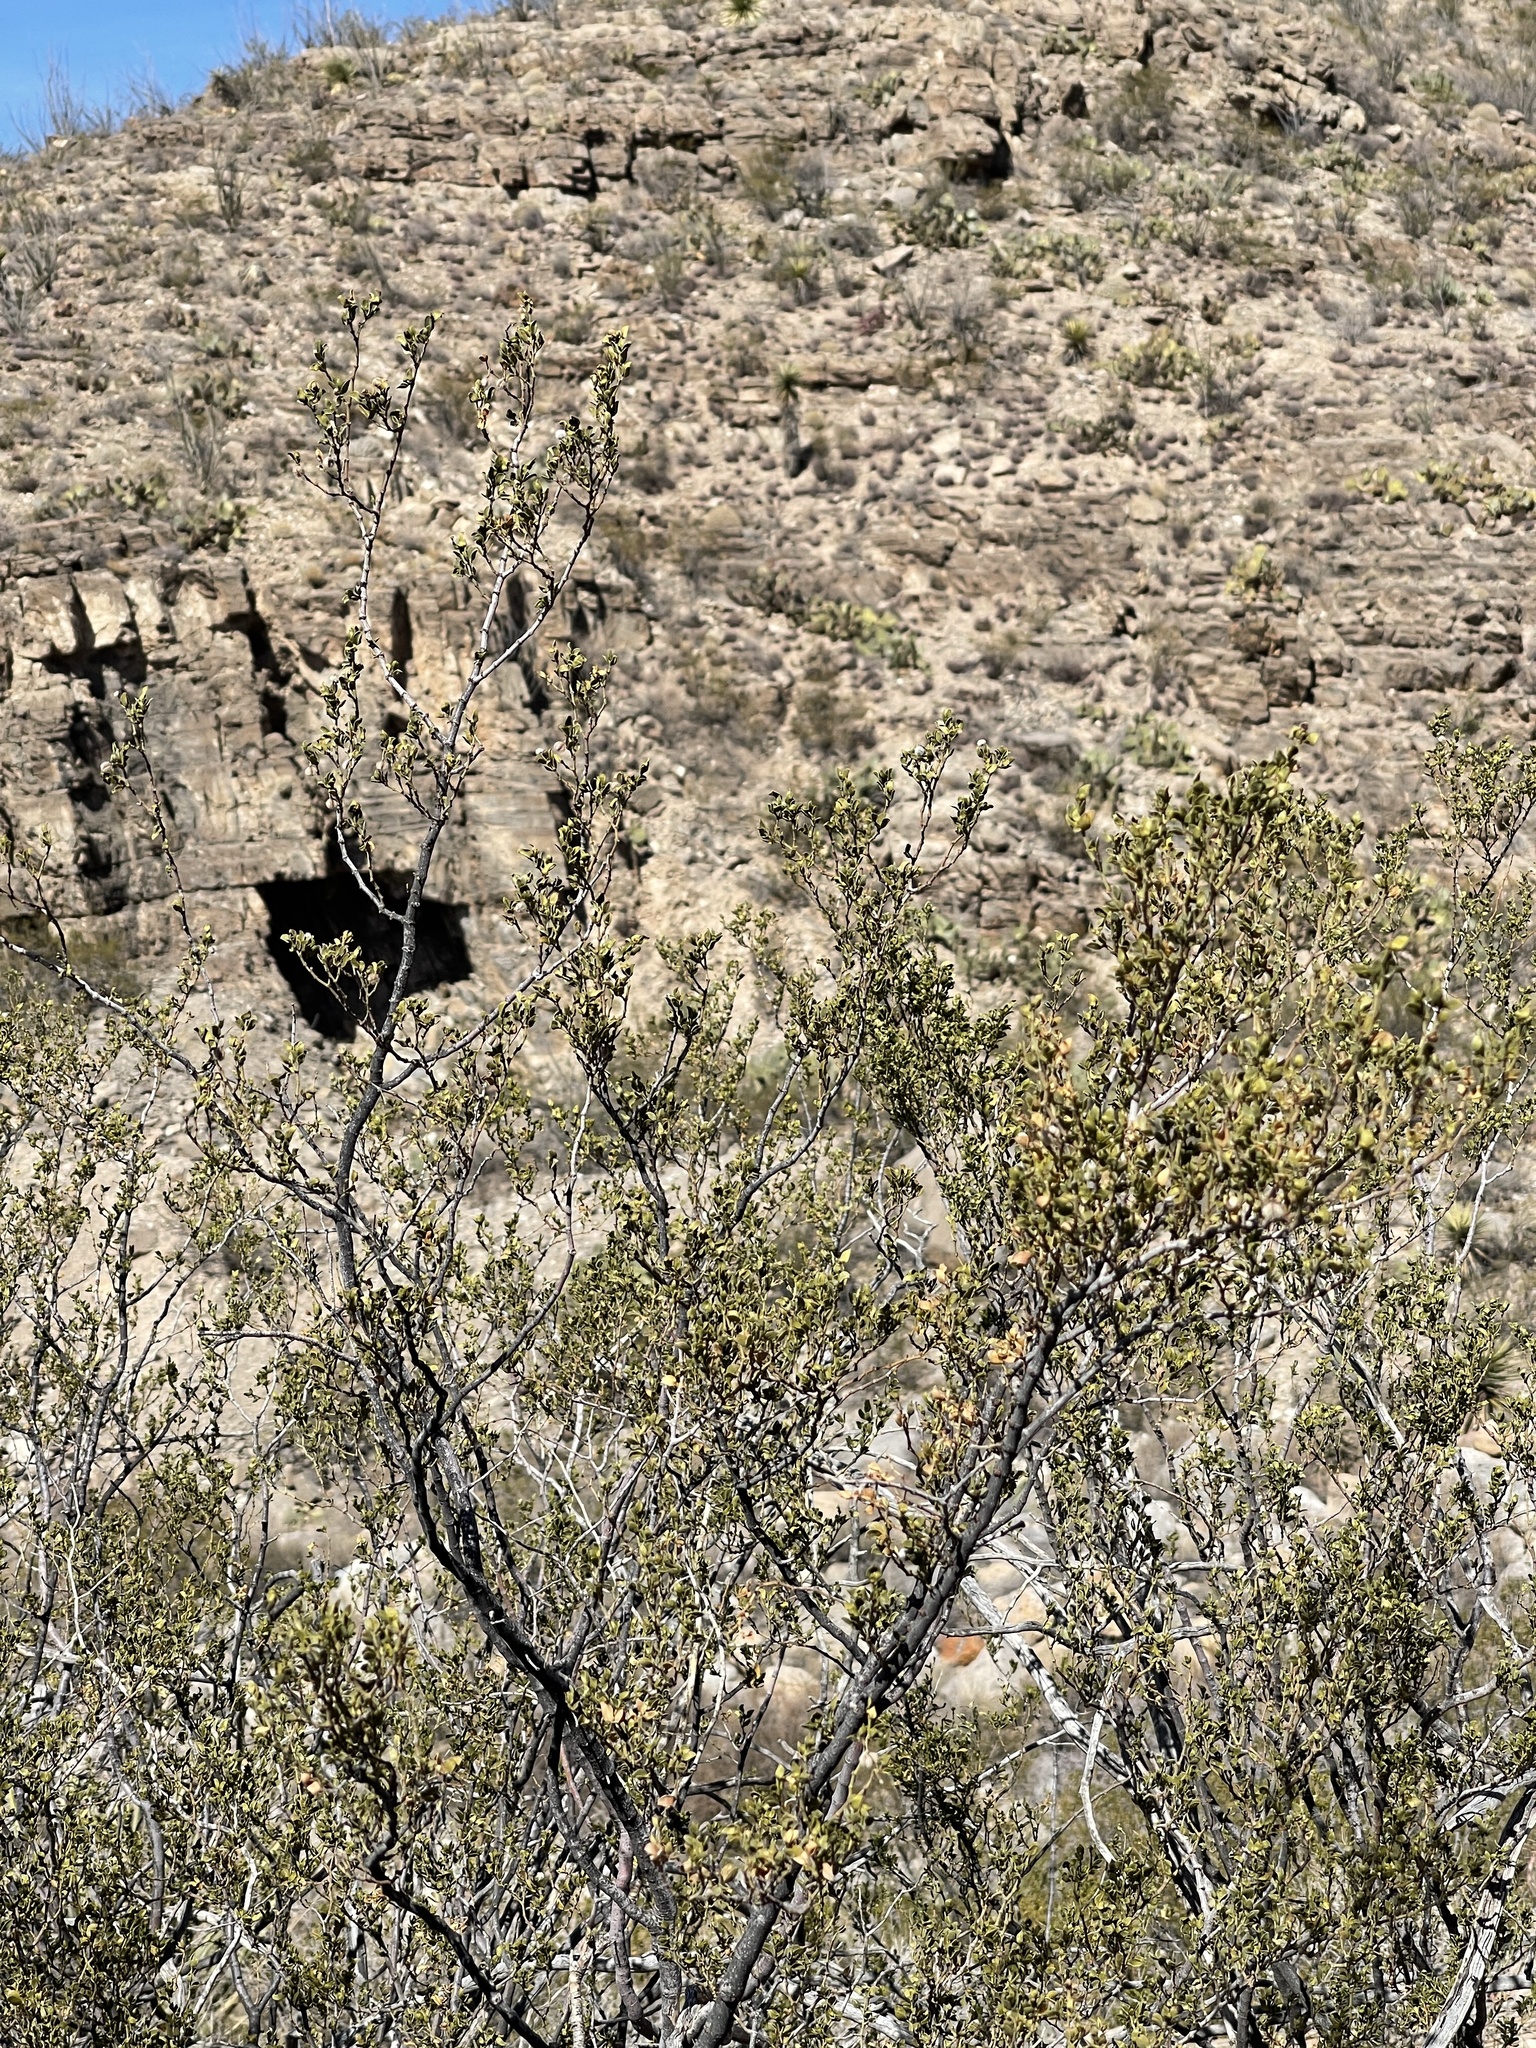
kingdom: Plantae
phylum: Tracheophyta
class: Magnoliopsida
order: Zygophyllales
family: Zygophyllaceae
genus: Larrea
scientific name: Larrea tridentata
